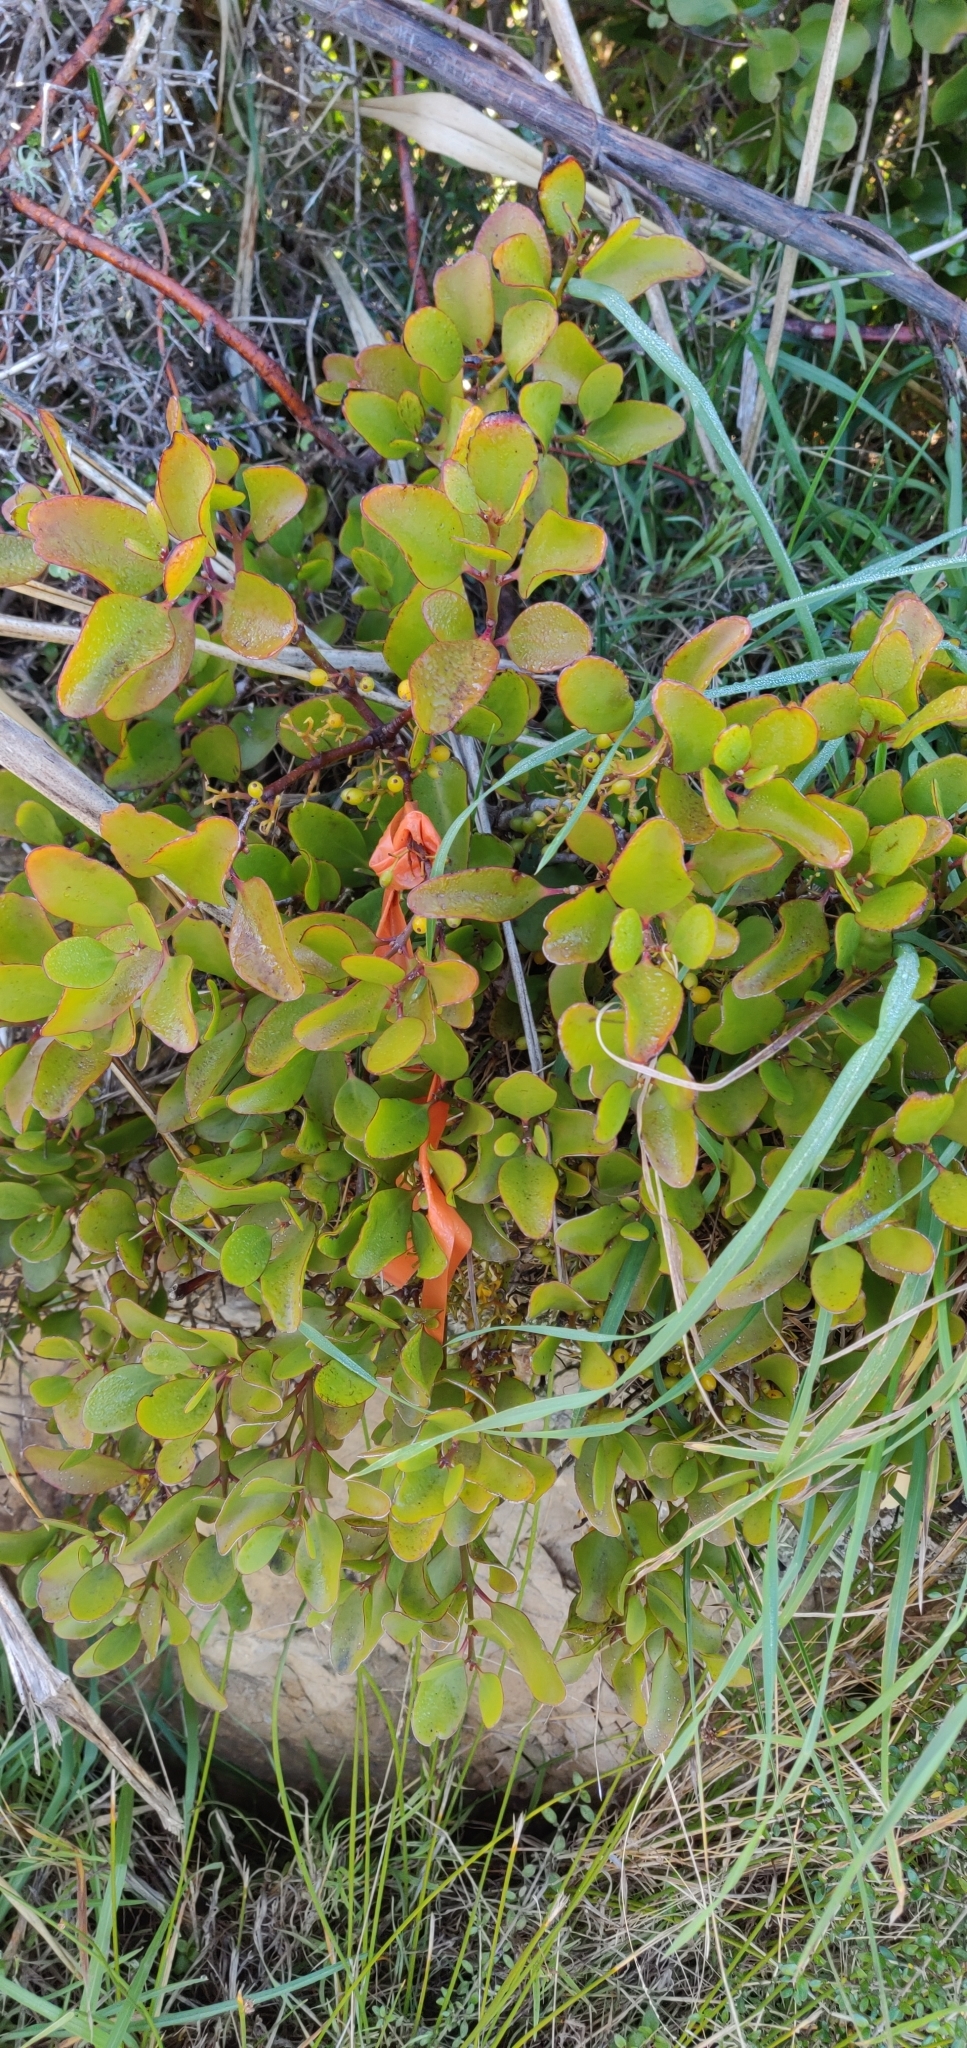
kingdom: Plantae
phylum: Tracheophyta
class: Magnoliopsida
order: Santalales
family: Loranthaceae
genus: Ileostylus
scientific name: Ileostylus micranthus
